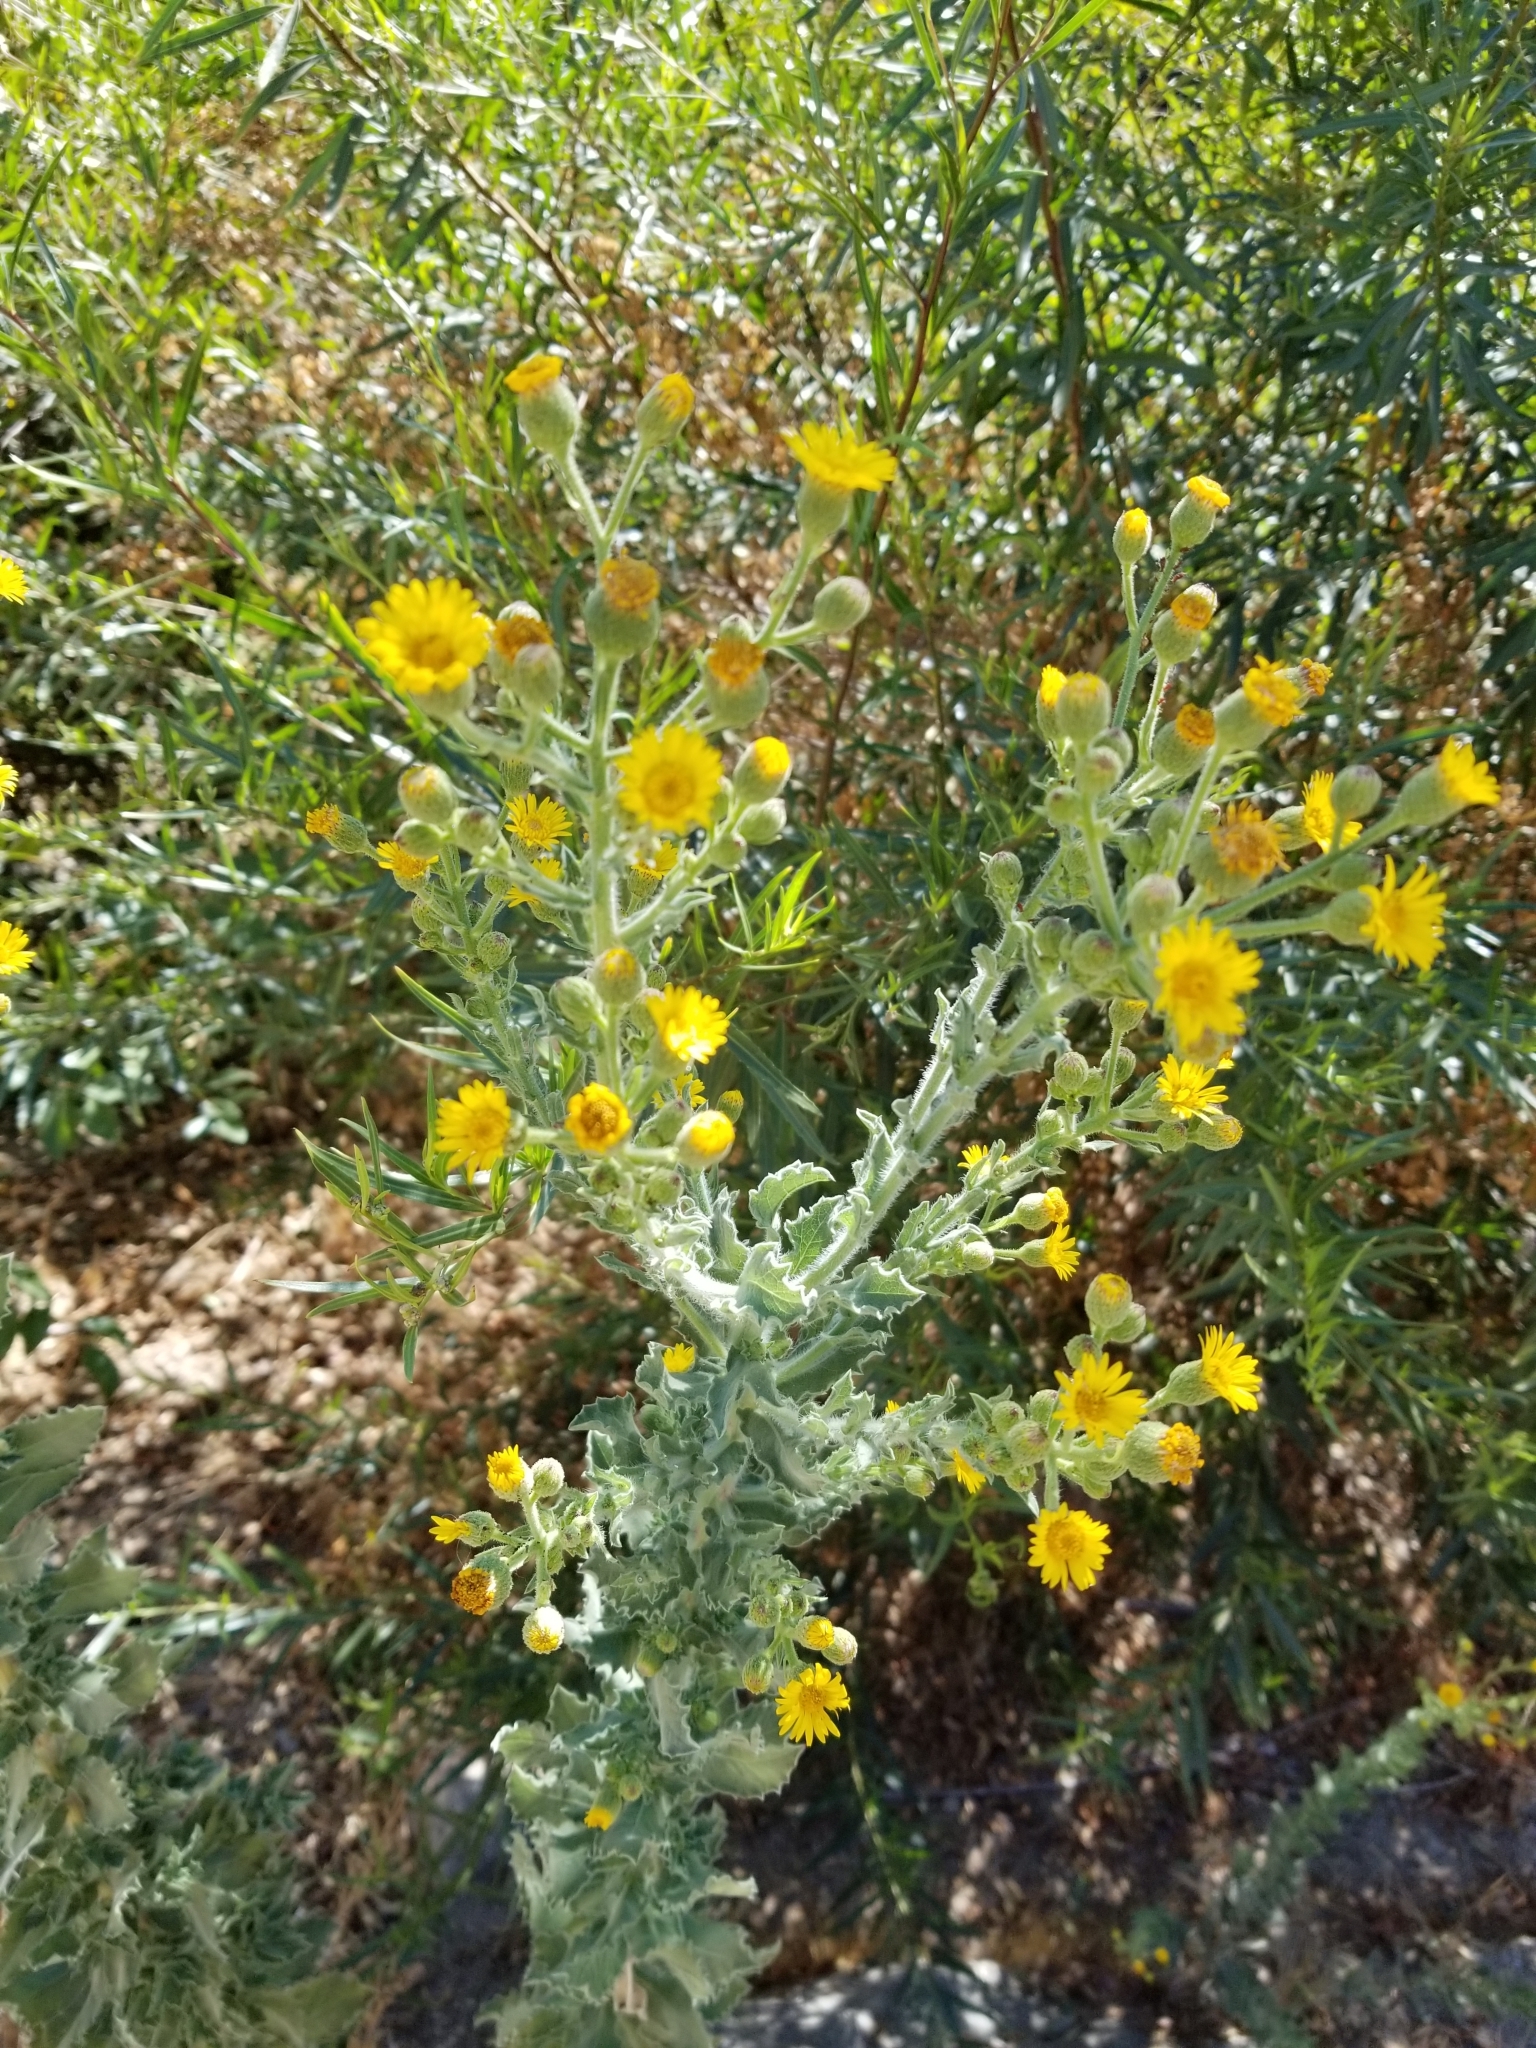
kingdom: Plantae
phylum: Tracheophyta
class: Magnoliopsida
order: Asterales
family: Asteraceae
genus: Heterotheca
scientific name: Heterotheca grandiflora
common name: Telegraphweed
